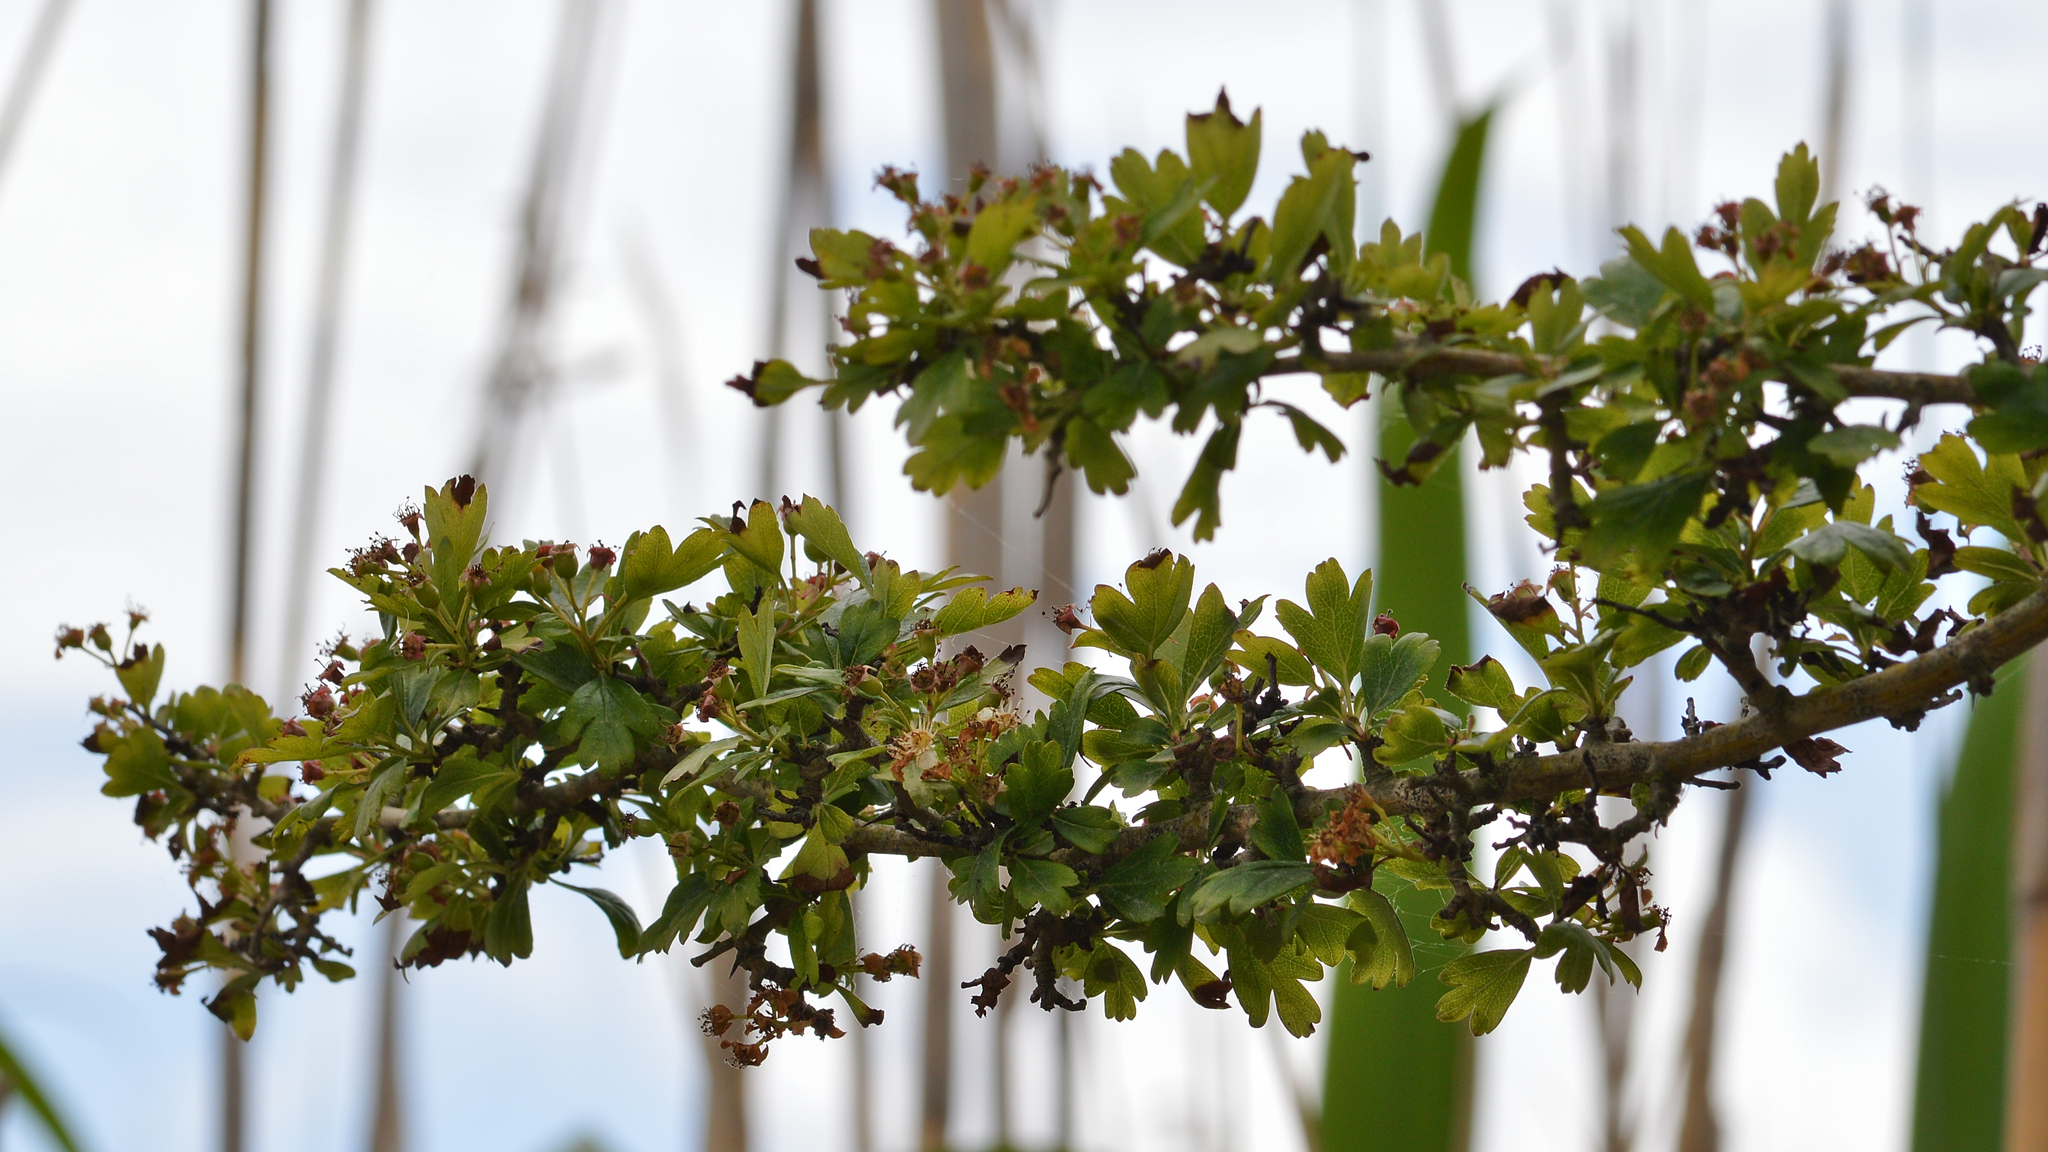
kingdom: Plantae
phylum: Tracheophyta
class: Magnoliopsida
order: Rosales
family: Rosaceae
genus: Crataegus
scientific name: Crataegus monogyna
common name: Hawthorn
